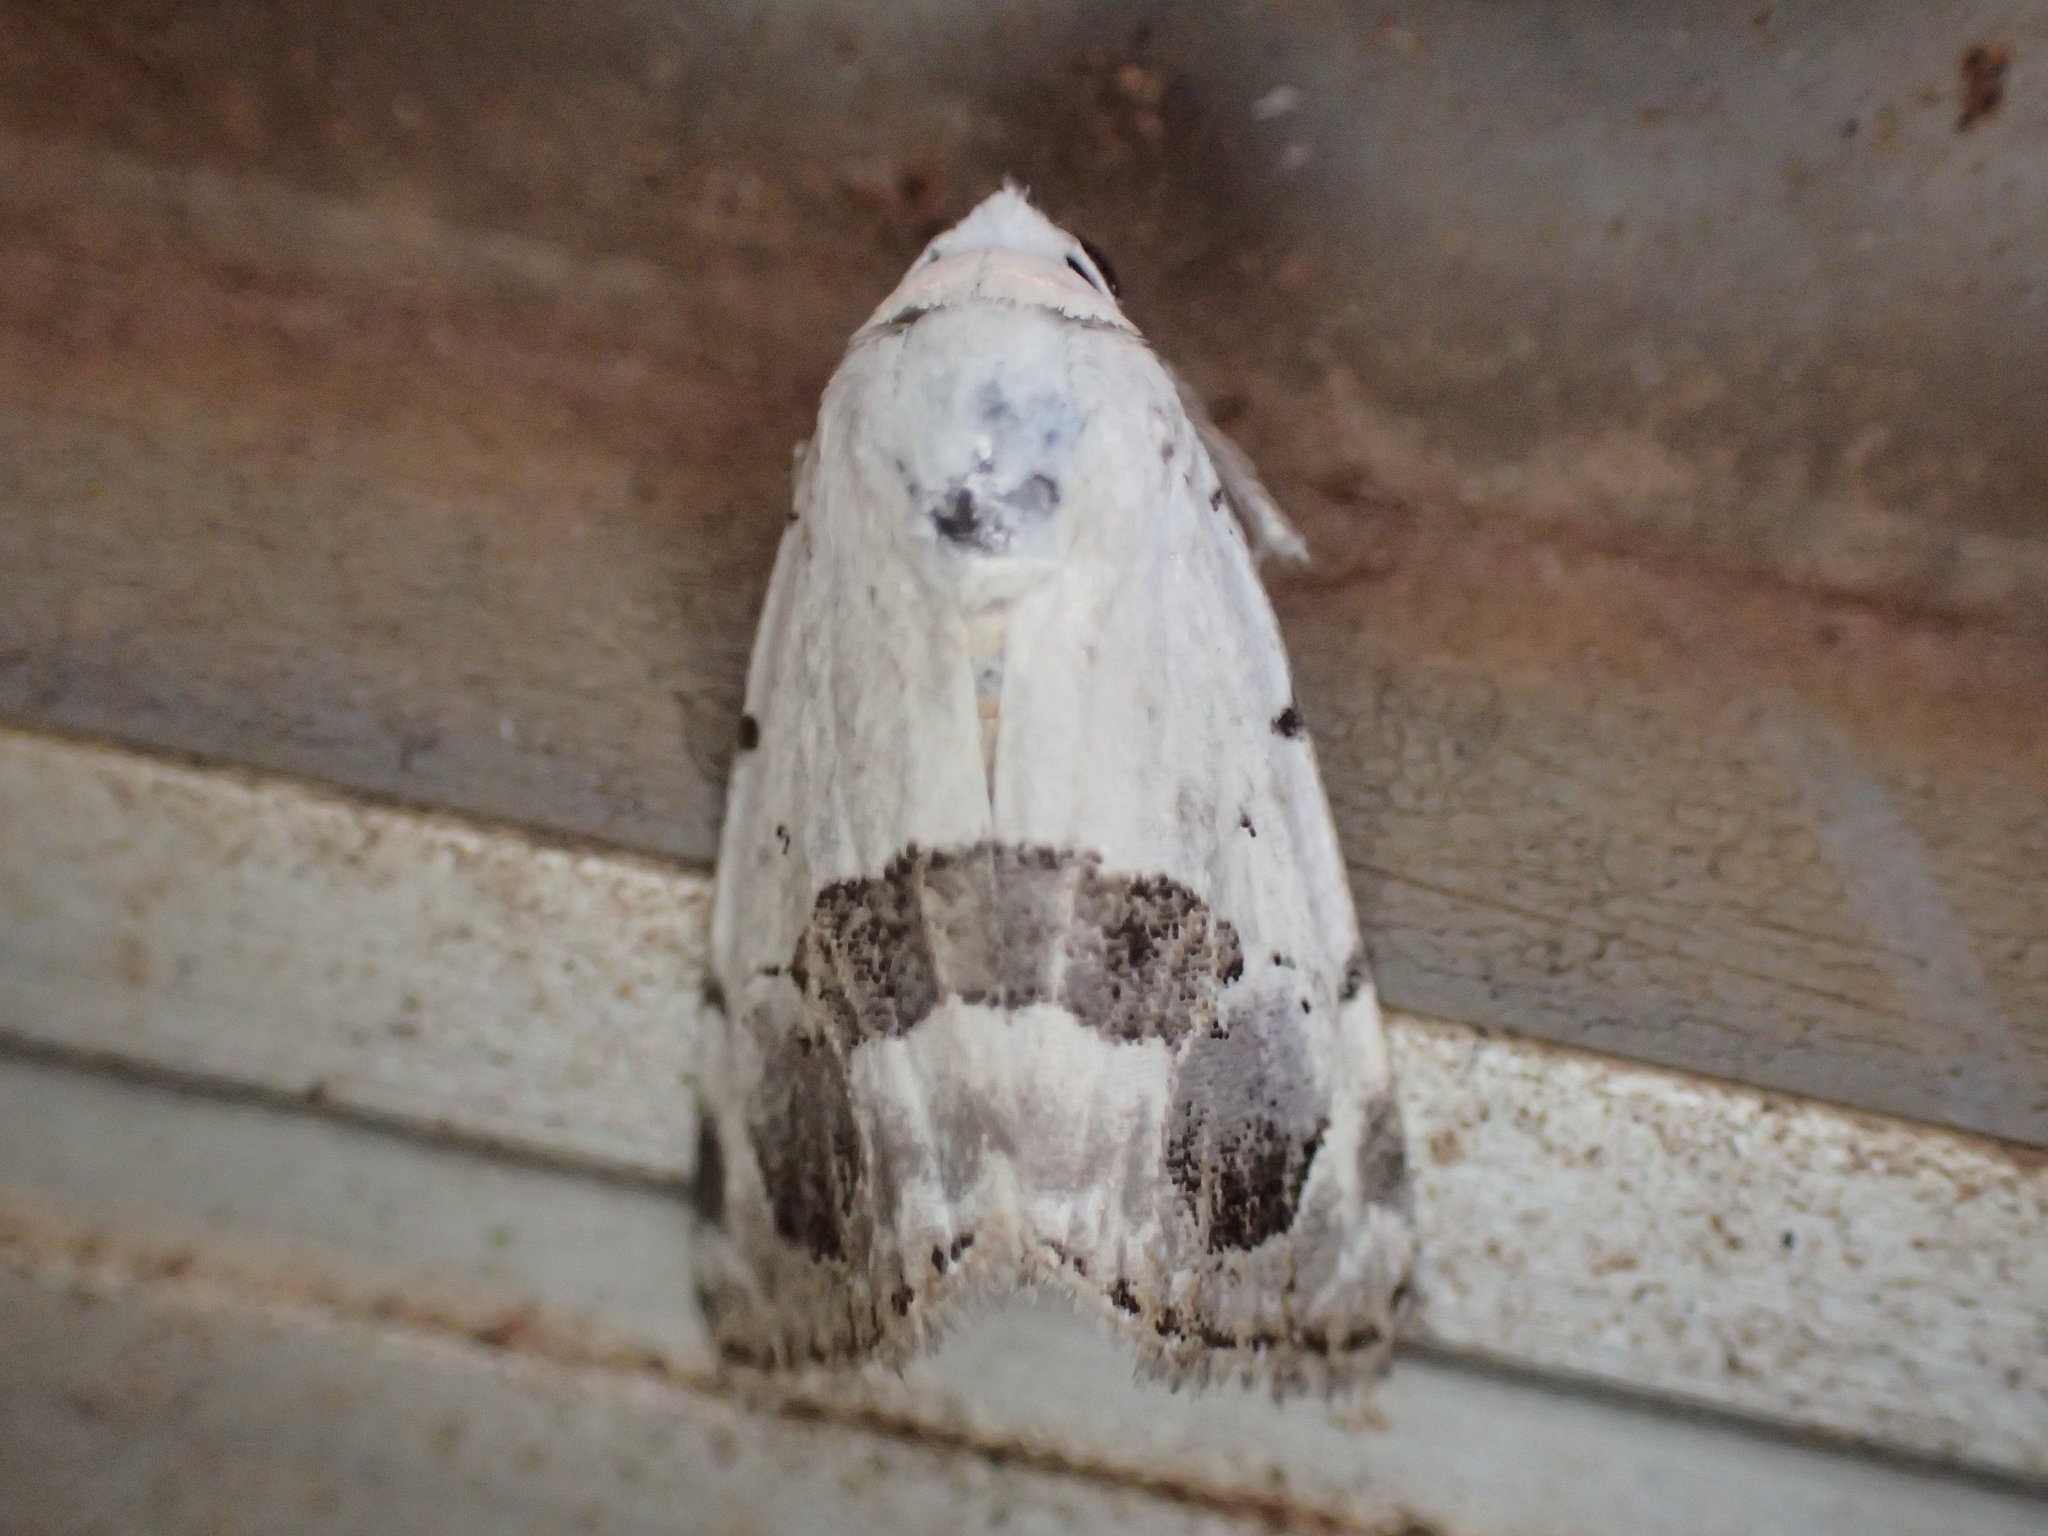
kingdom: Animalia
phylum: Arthropoda
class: Insecta
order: Lepidoptera
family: Nolidae
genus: Armactica
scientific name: Armactica conchidia
